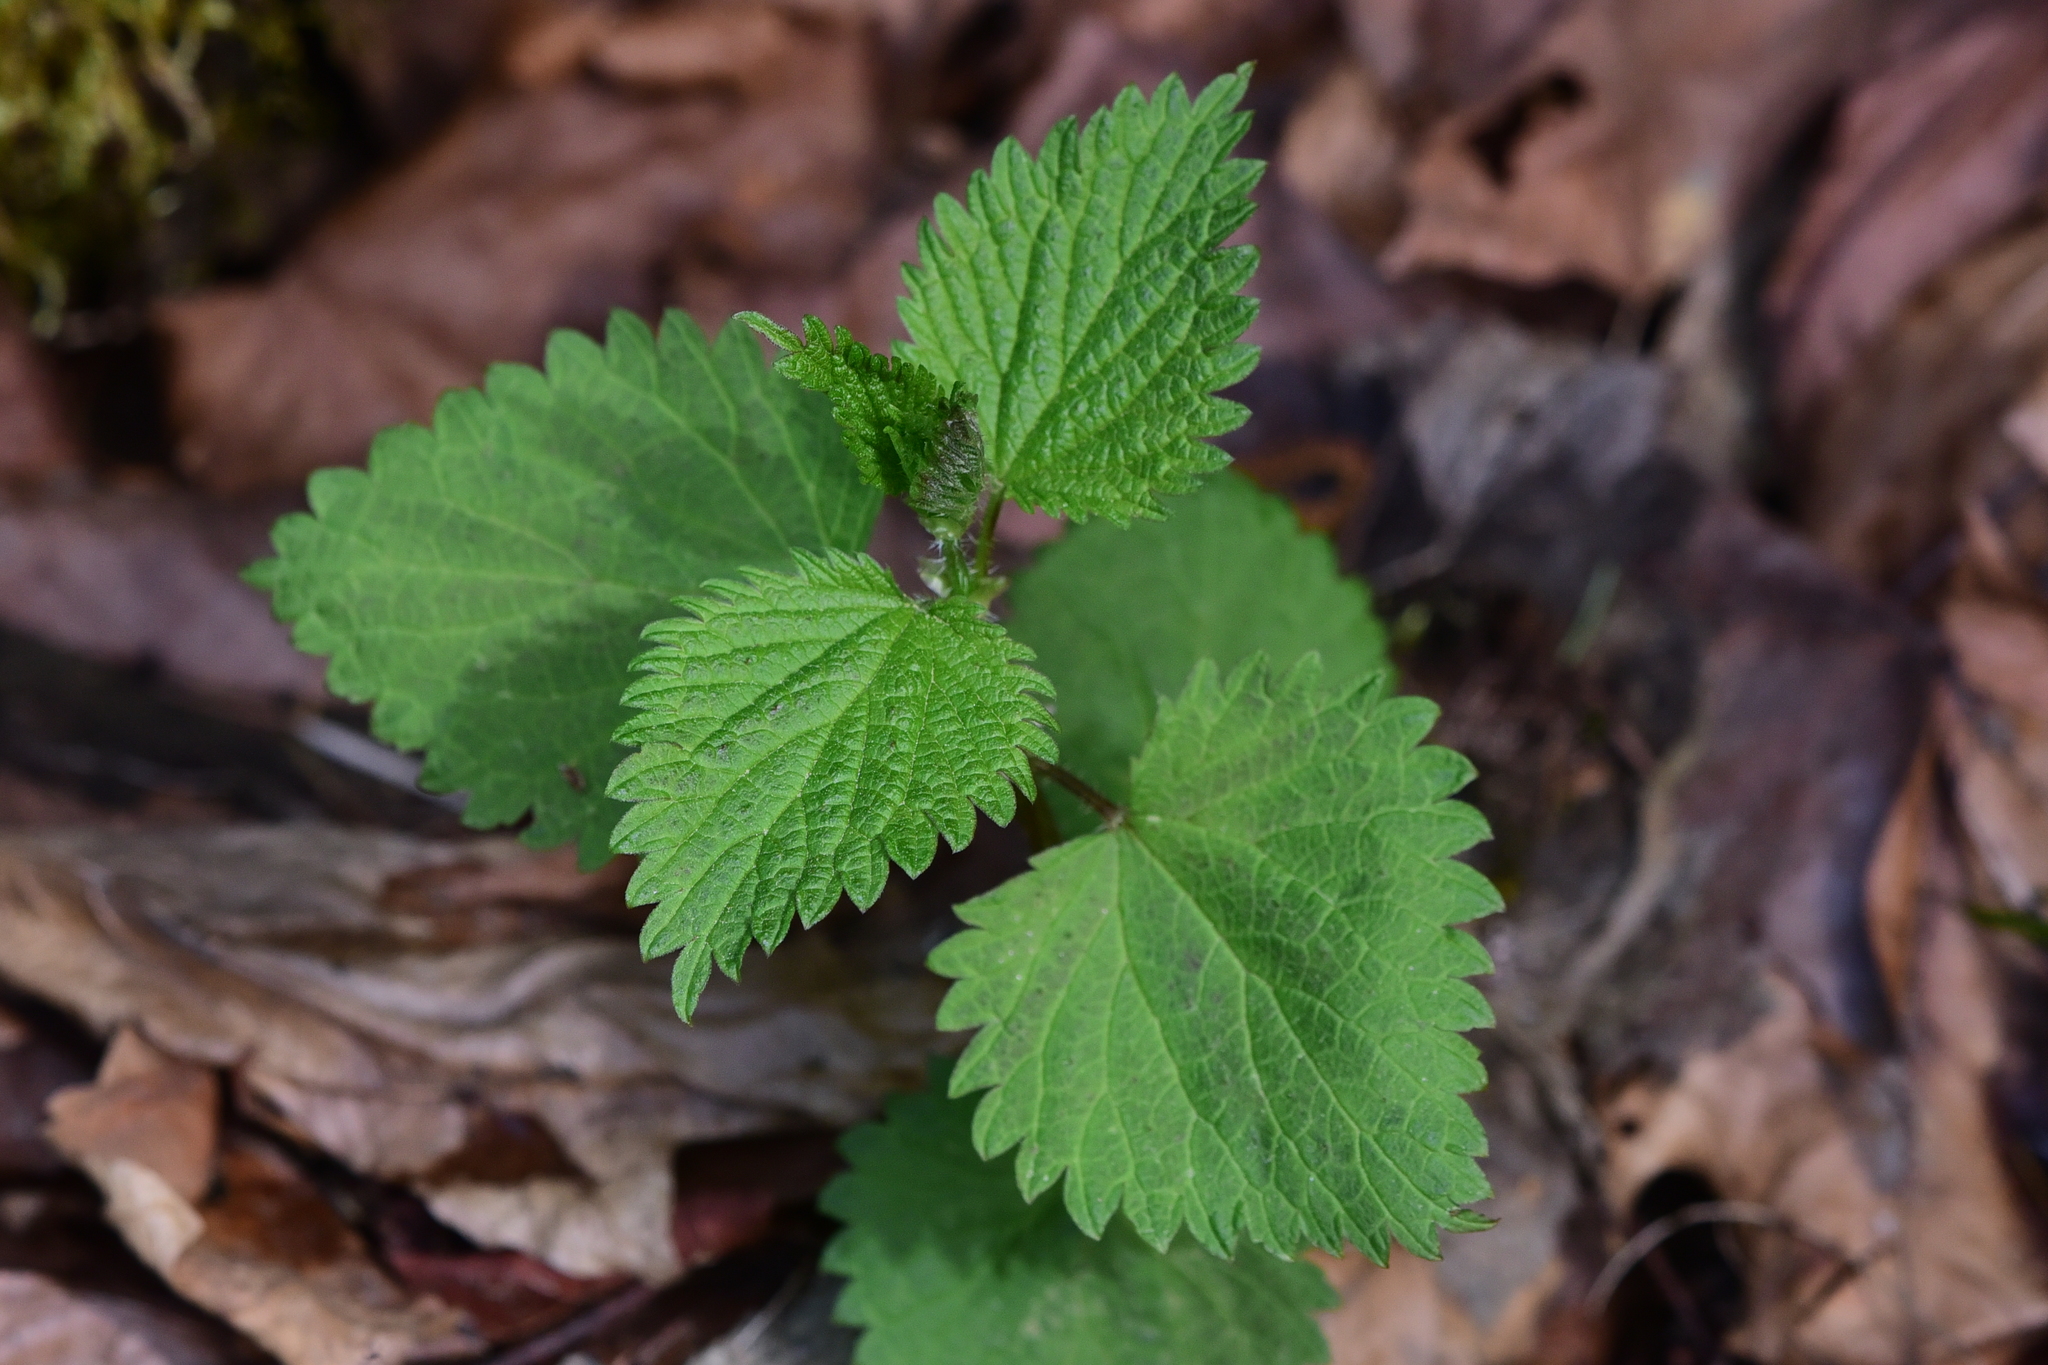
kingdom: Plantae
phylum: Tracheophyta
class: Magnoliopsida
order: Rosales
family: Urticaceae
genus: Urtica
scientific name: Urtica dioica
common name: Common nettle
